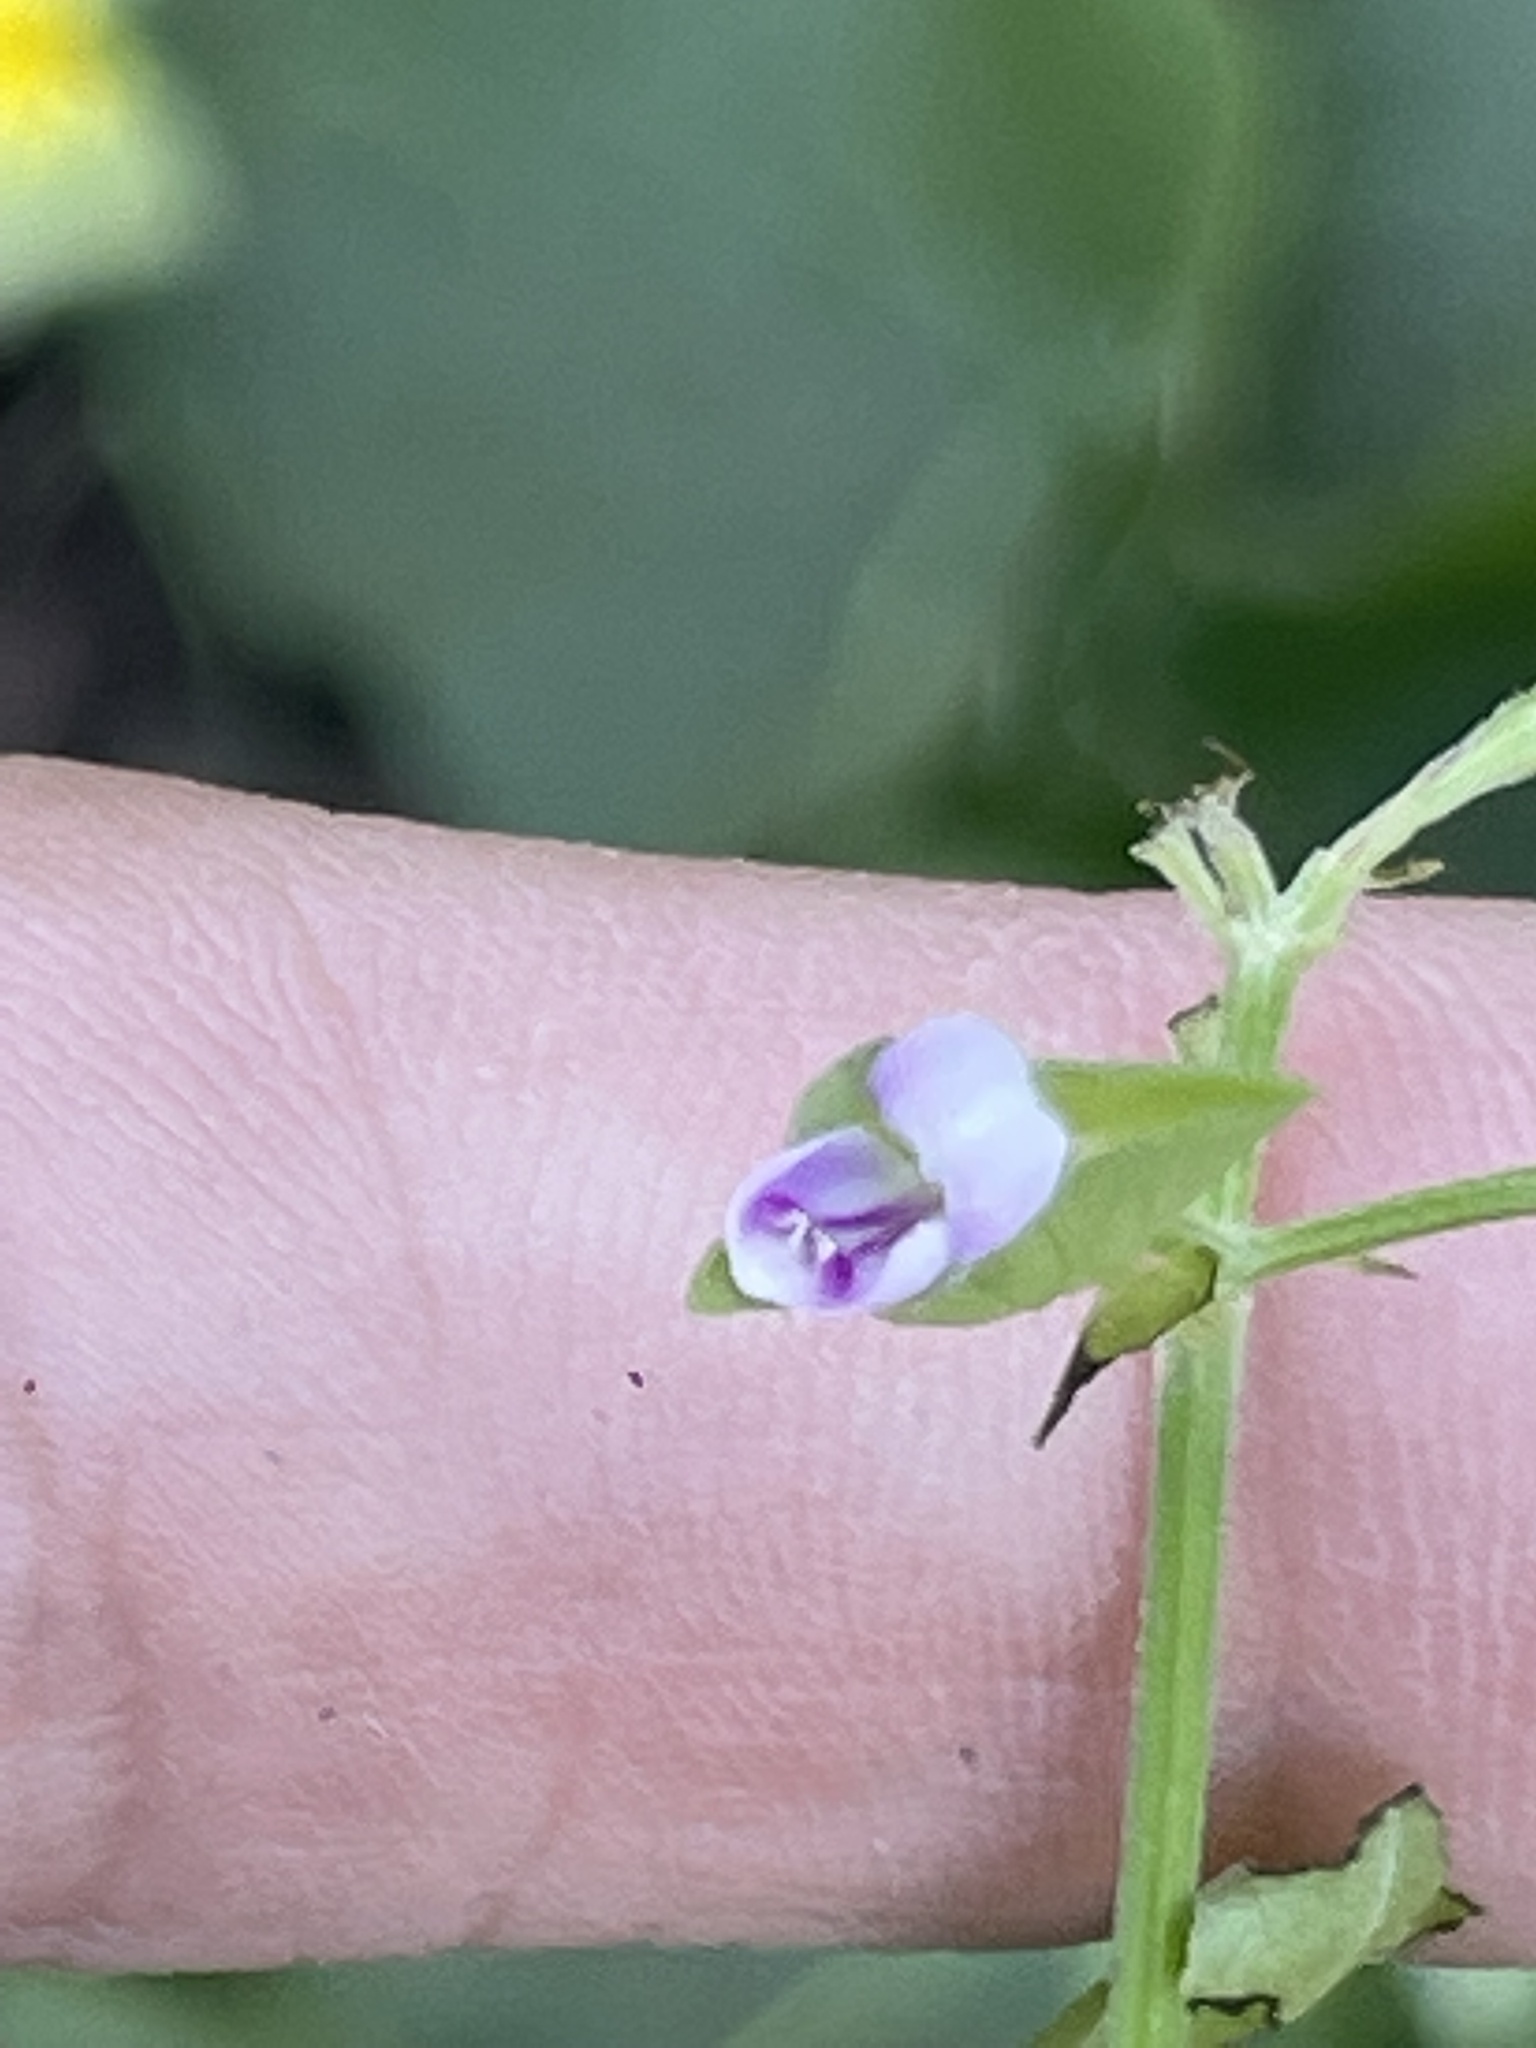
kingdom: Plantae
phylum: Tracheophyta
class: Magnoliopsida
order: Lamiales
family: Acanthaceae
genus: Dicliptera
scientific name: Dicliptera resupinata
